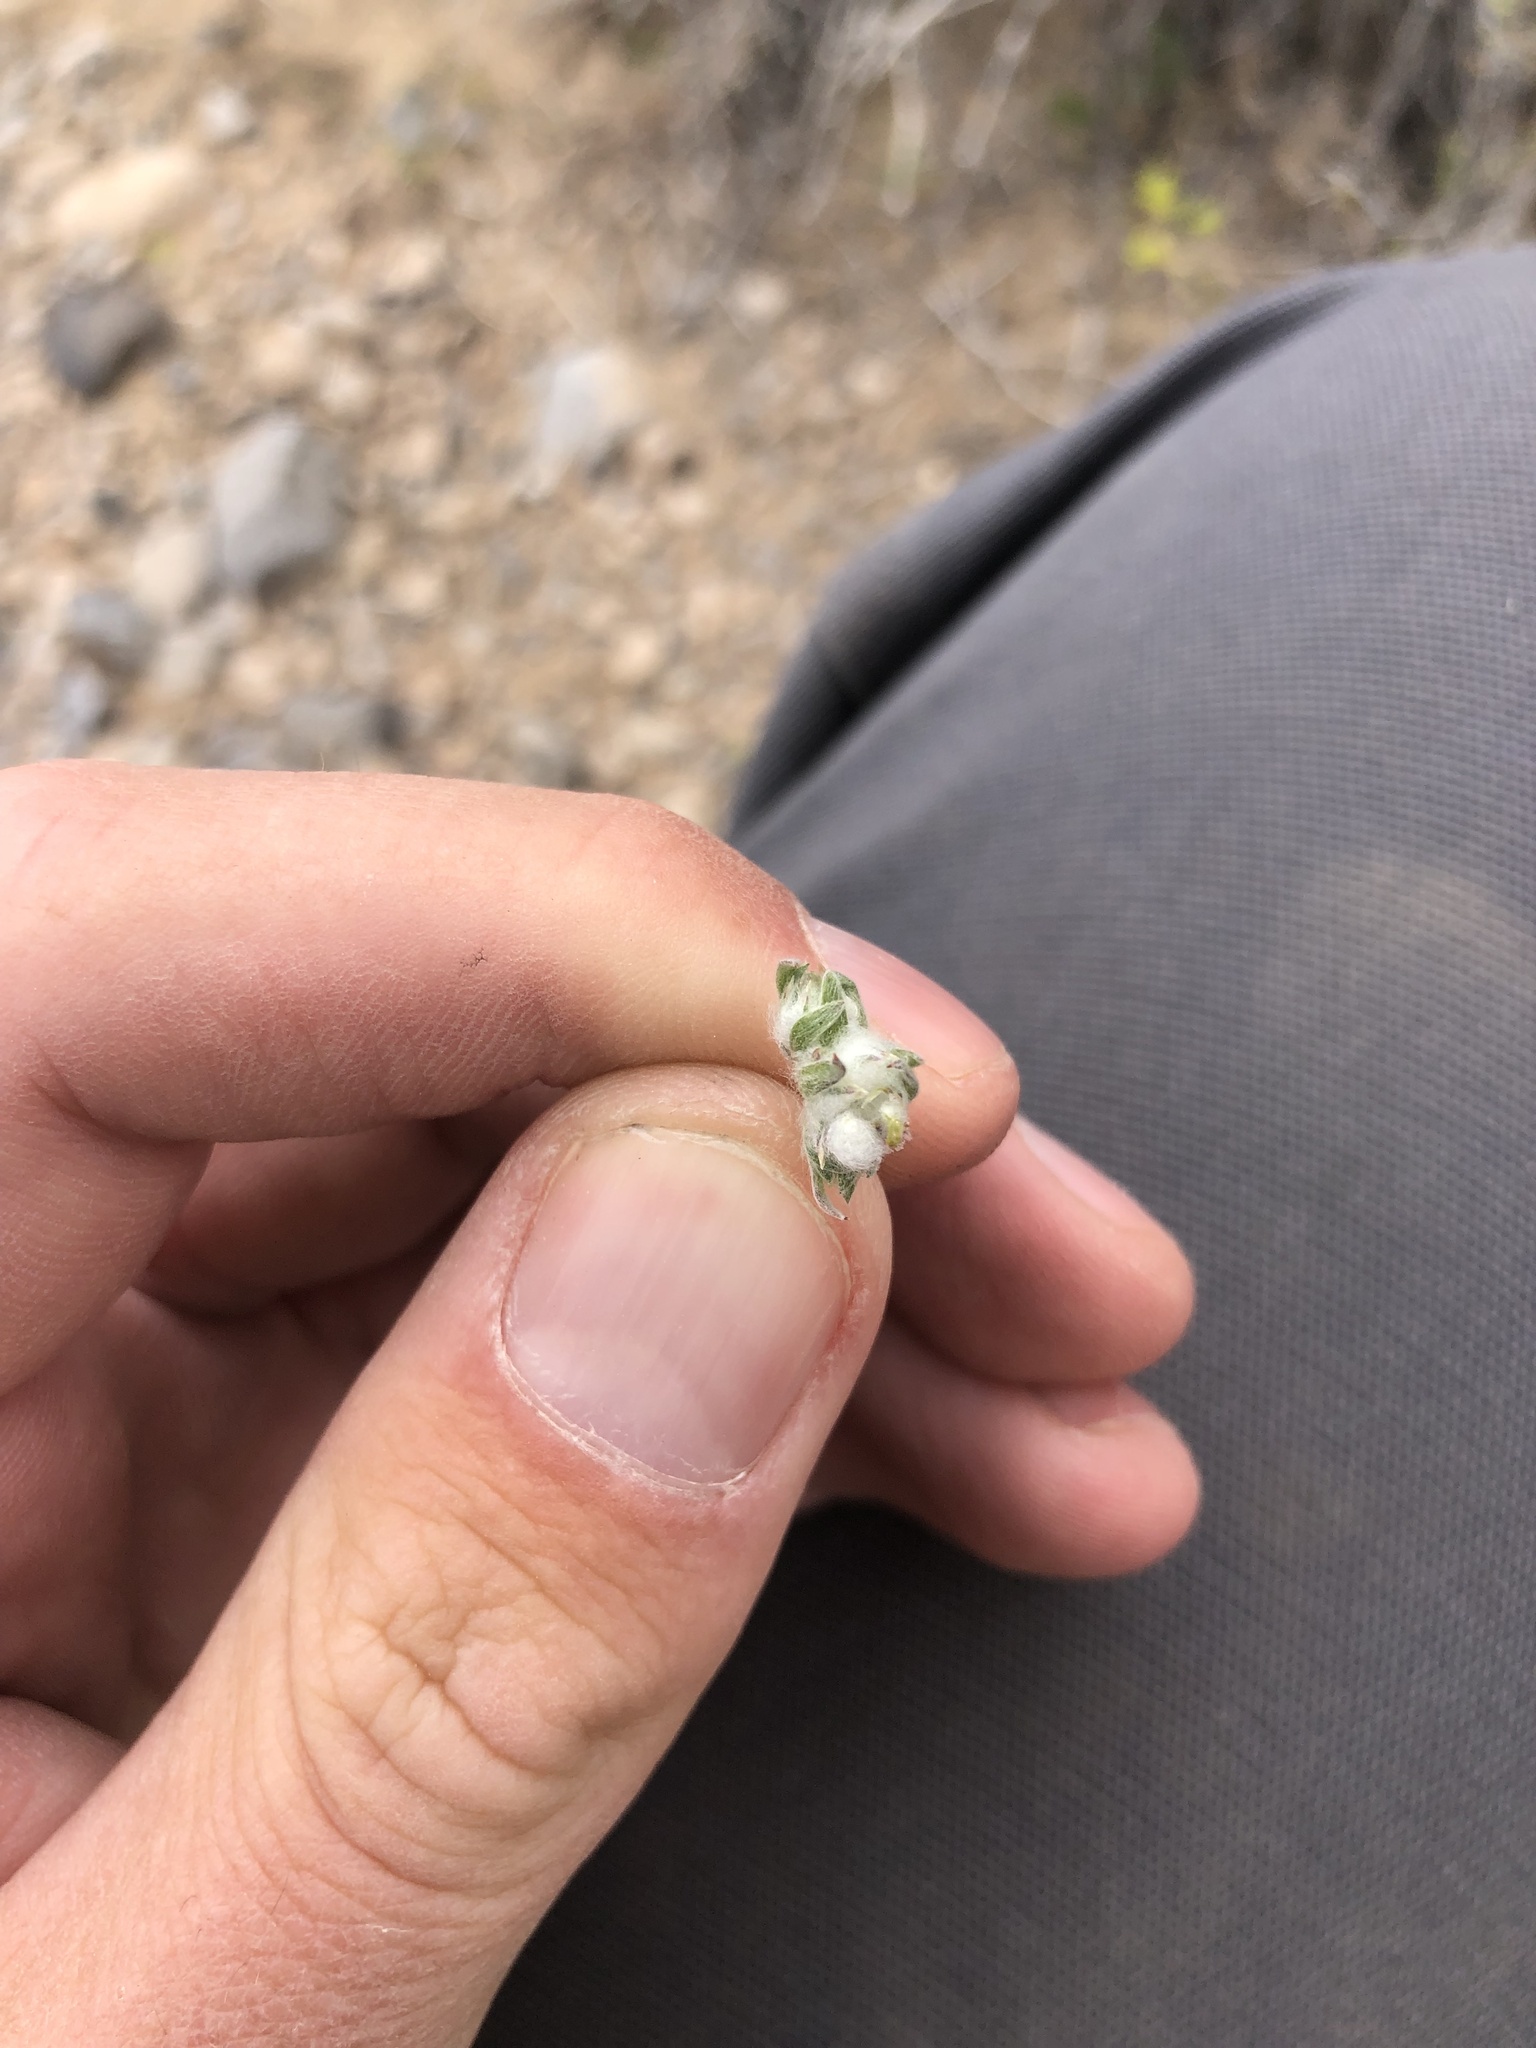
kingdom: Plantae
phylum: Tracheophyta
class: Magnoliopsida
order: Asterales
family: Asteraceae
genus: Stylocline
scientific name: Stylocline micropoides
